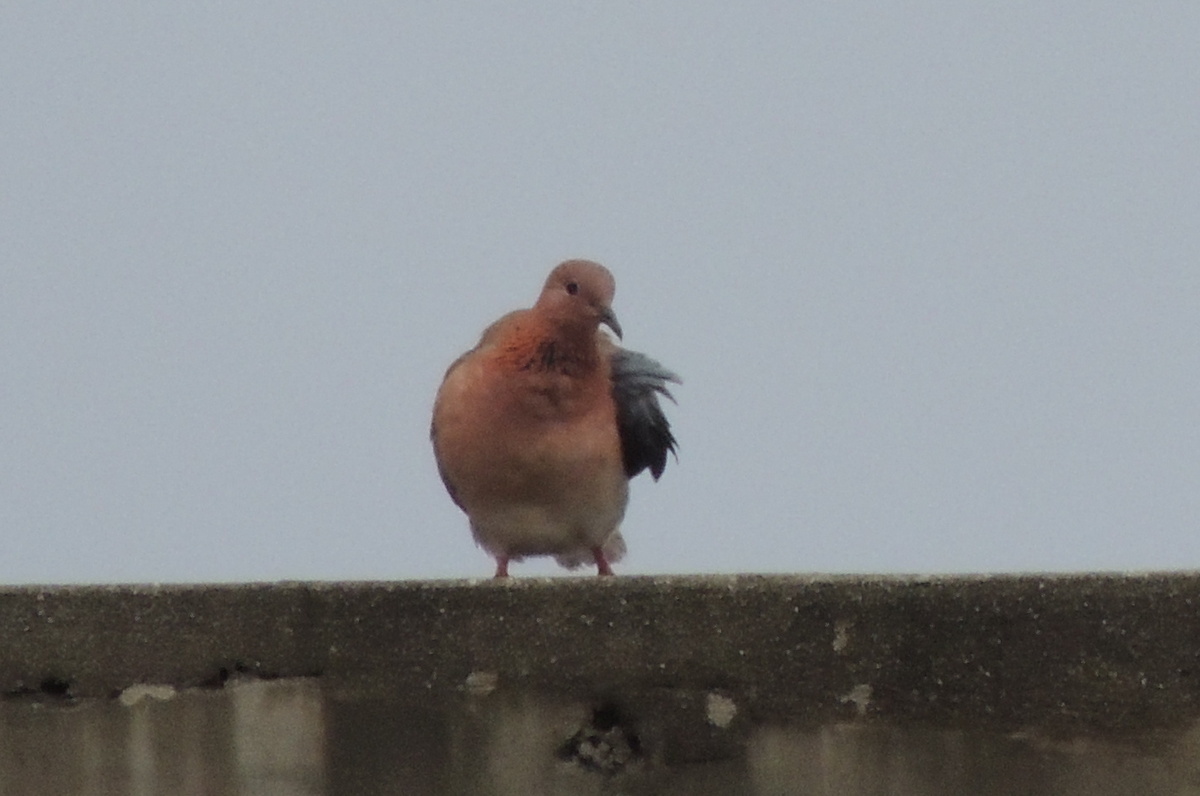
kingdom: Animalia
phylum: Chordata
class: Aves
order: Columbiformes
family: Columbidae
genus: Spilopelia
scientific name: Spilopelia senegalensis
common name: Laughing dove
